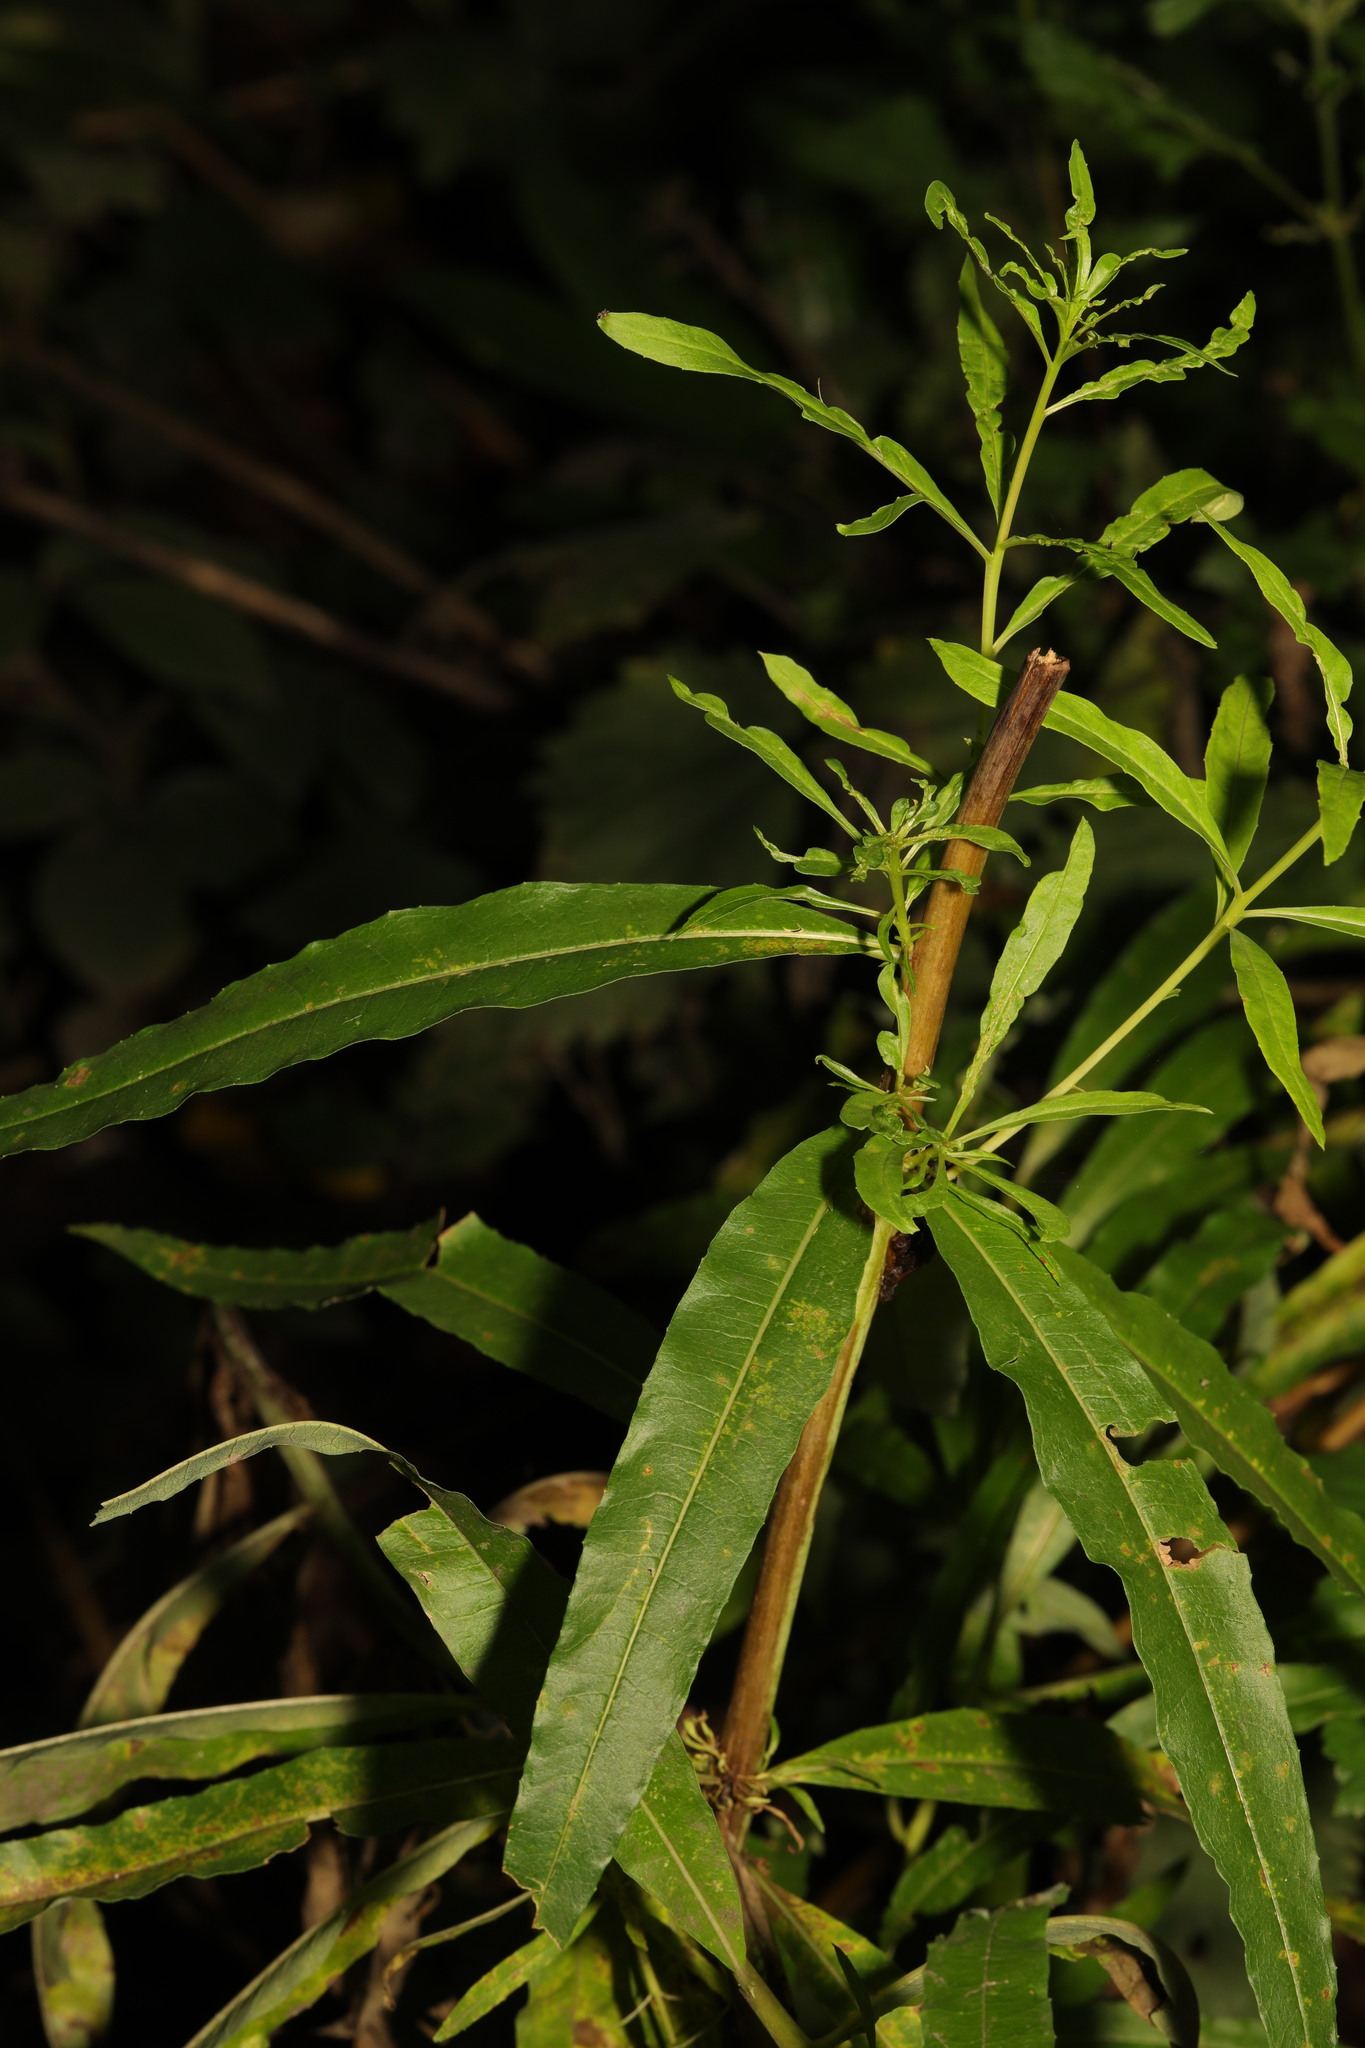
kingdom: Plantae
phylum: Tracheophyta
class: Magnoliopsida
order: Myrtales
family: Onagraceae
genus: Chamaenerion
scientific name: Chamaenerion angustifolium
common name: Fireweed
